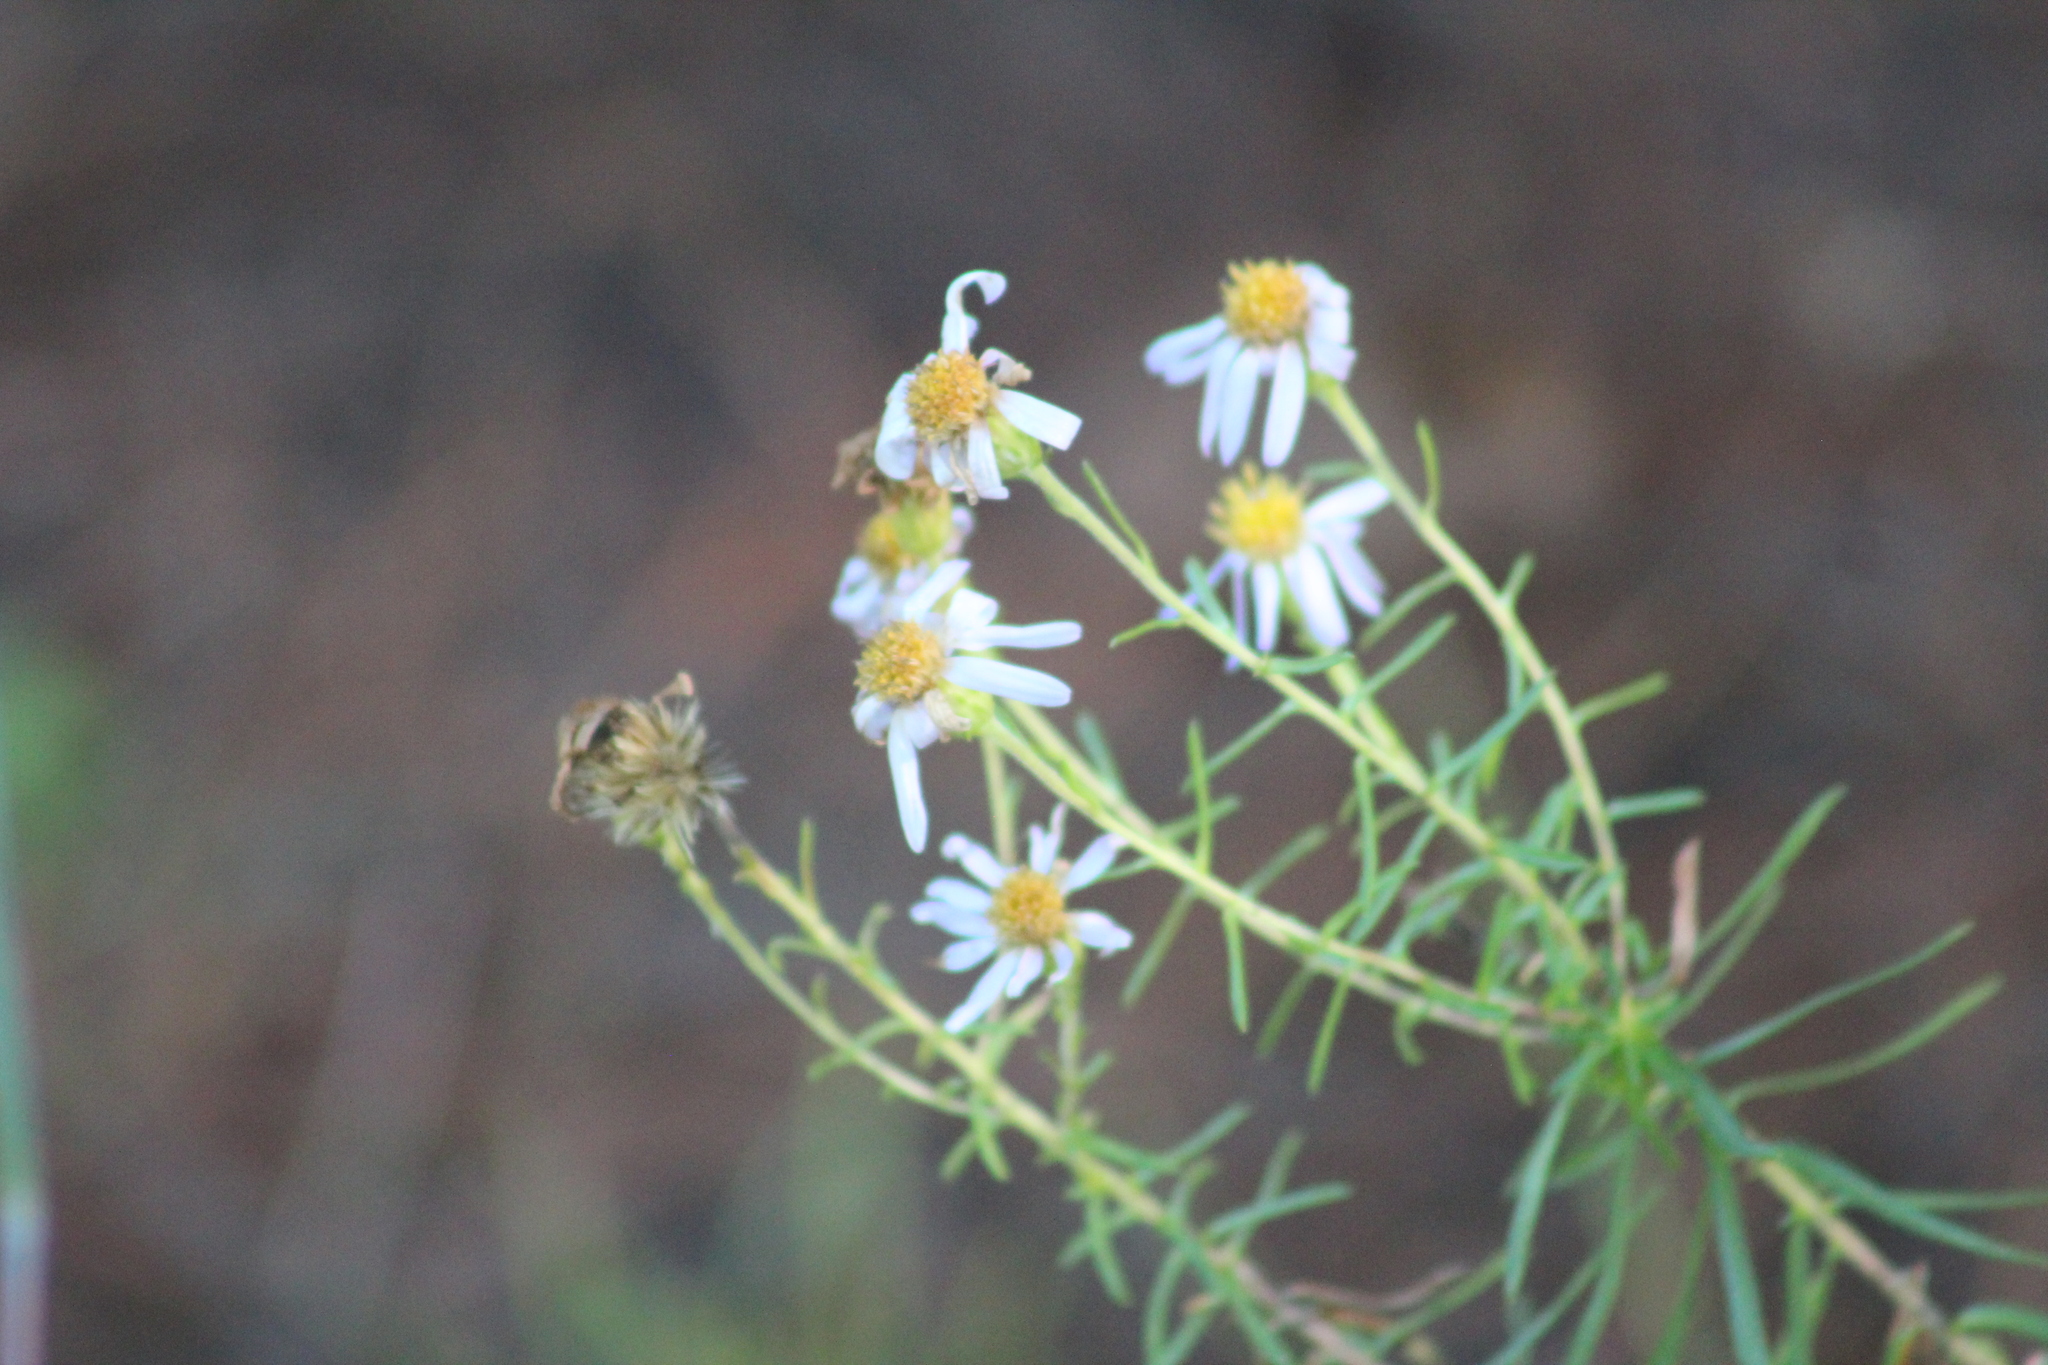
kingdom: Plantae
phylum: Tracheophyta
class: Magnoliopsida
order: Asterales
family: Asteraceae
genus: Ionactis
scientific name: Ionactis linariifolia
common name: Flax-leaf aster
